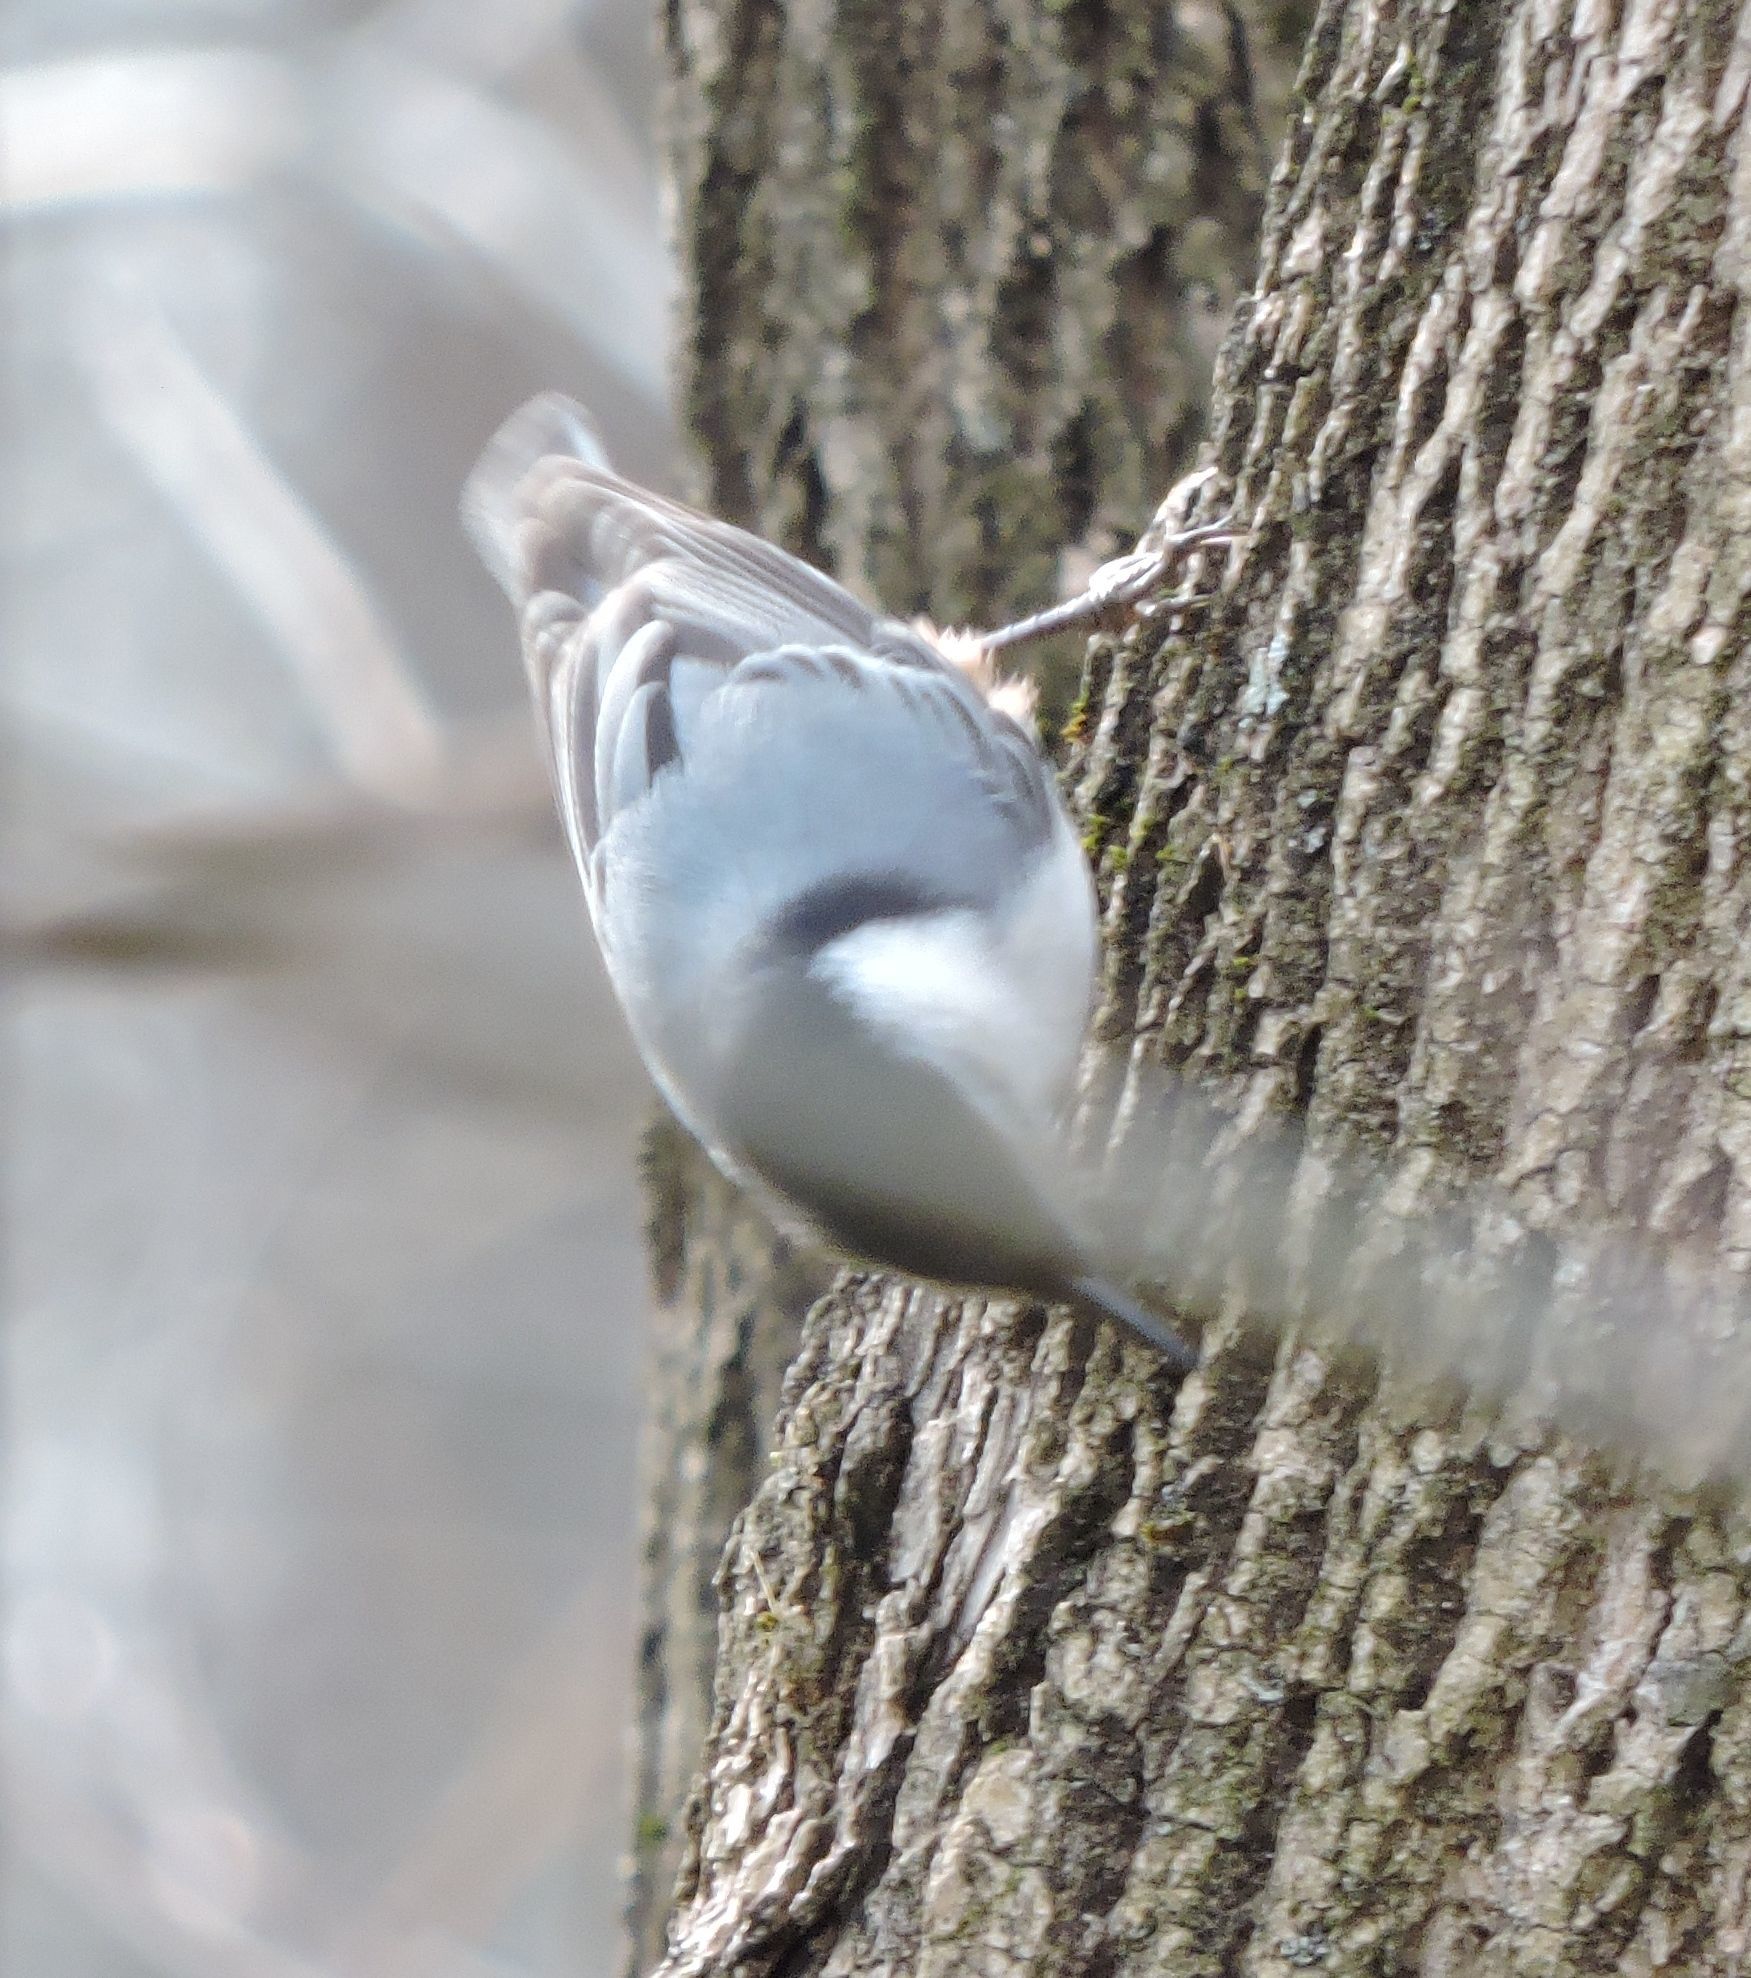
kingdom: Animalia
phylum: Chordata
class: Aves
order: Passeriformes
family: Sittidae
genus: Sitta
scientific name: Sitta carolinensis
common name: White-breasted nuthatch
